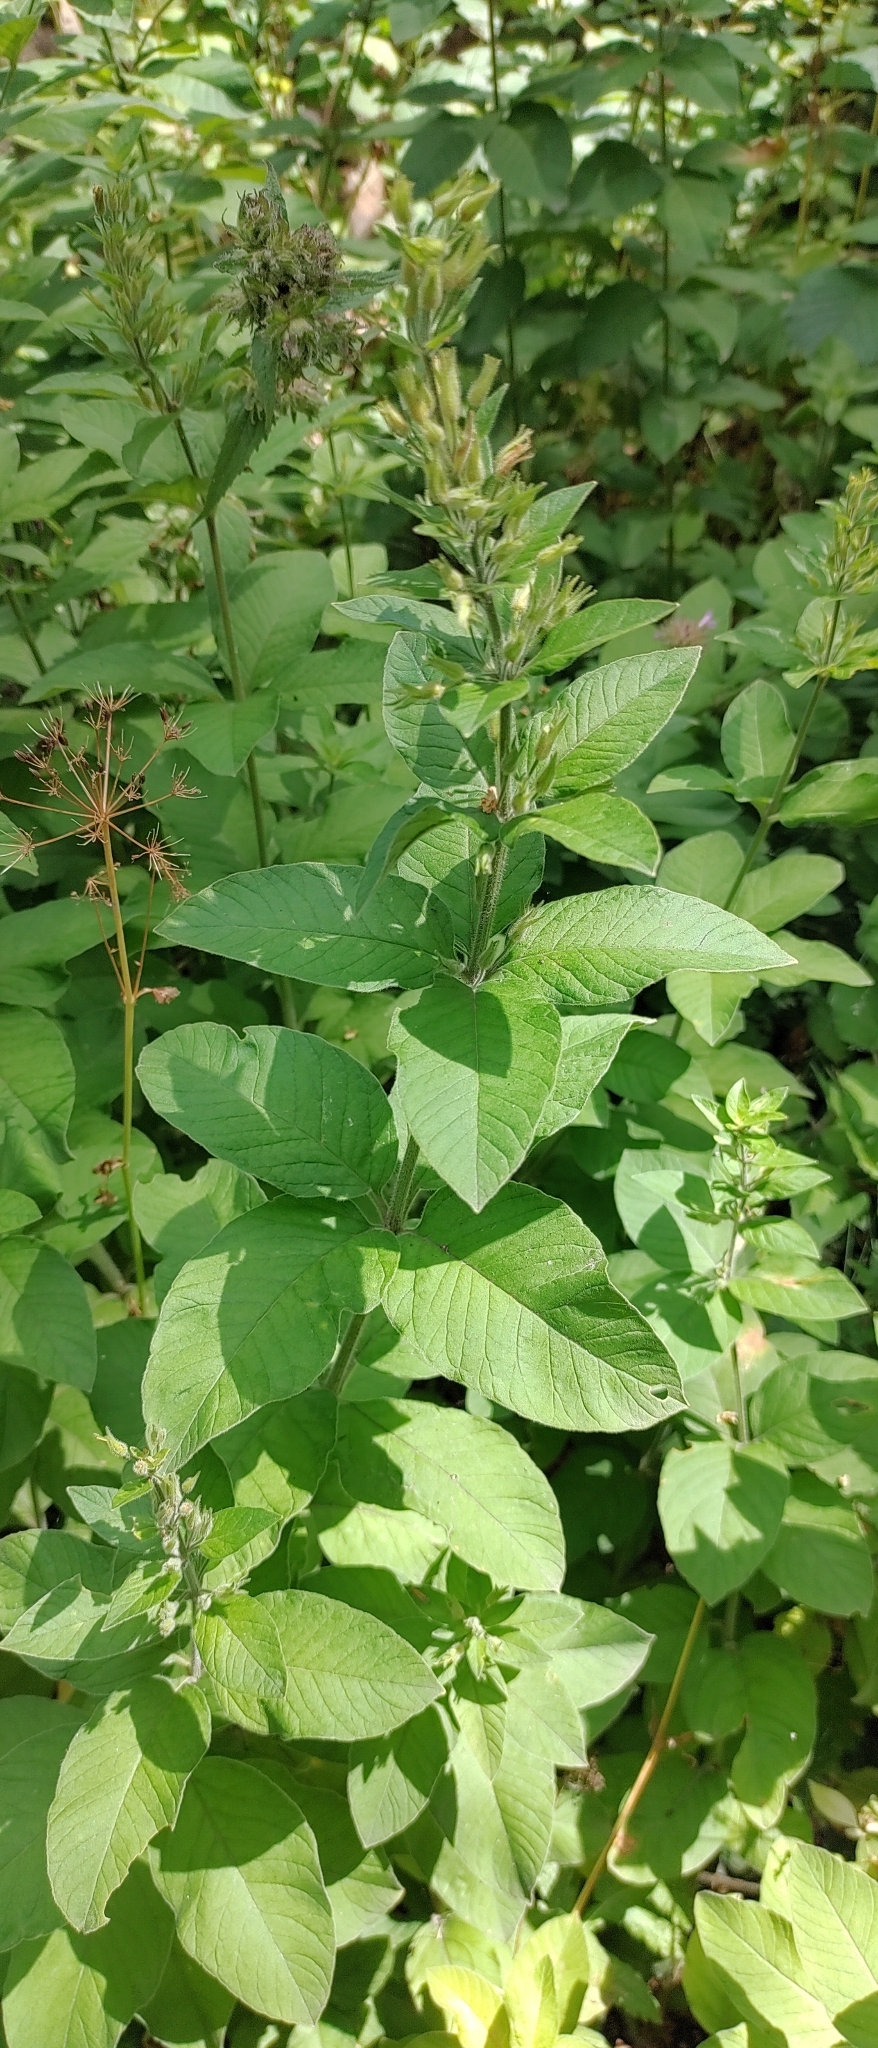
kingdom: Plantae
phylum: Tracheophyta
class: Magnoliopsida
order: Ericales
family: Primulaceae
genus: Lysimachia
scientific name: Lysimachia punctata
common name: Dotted loosestrife
